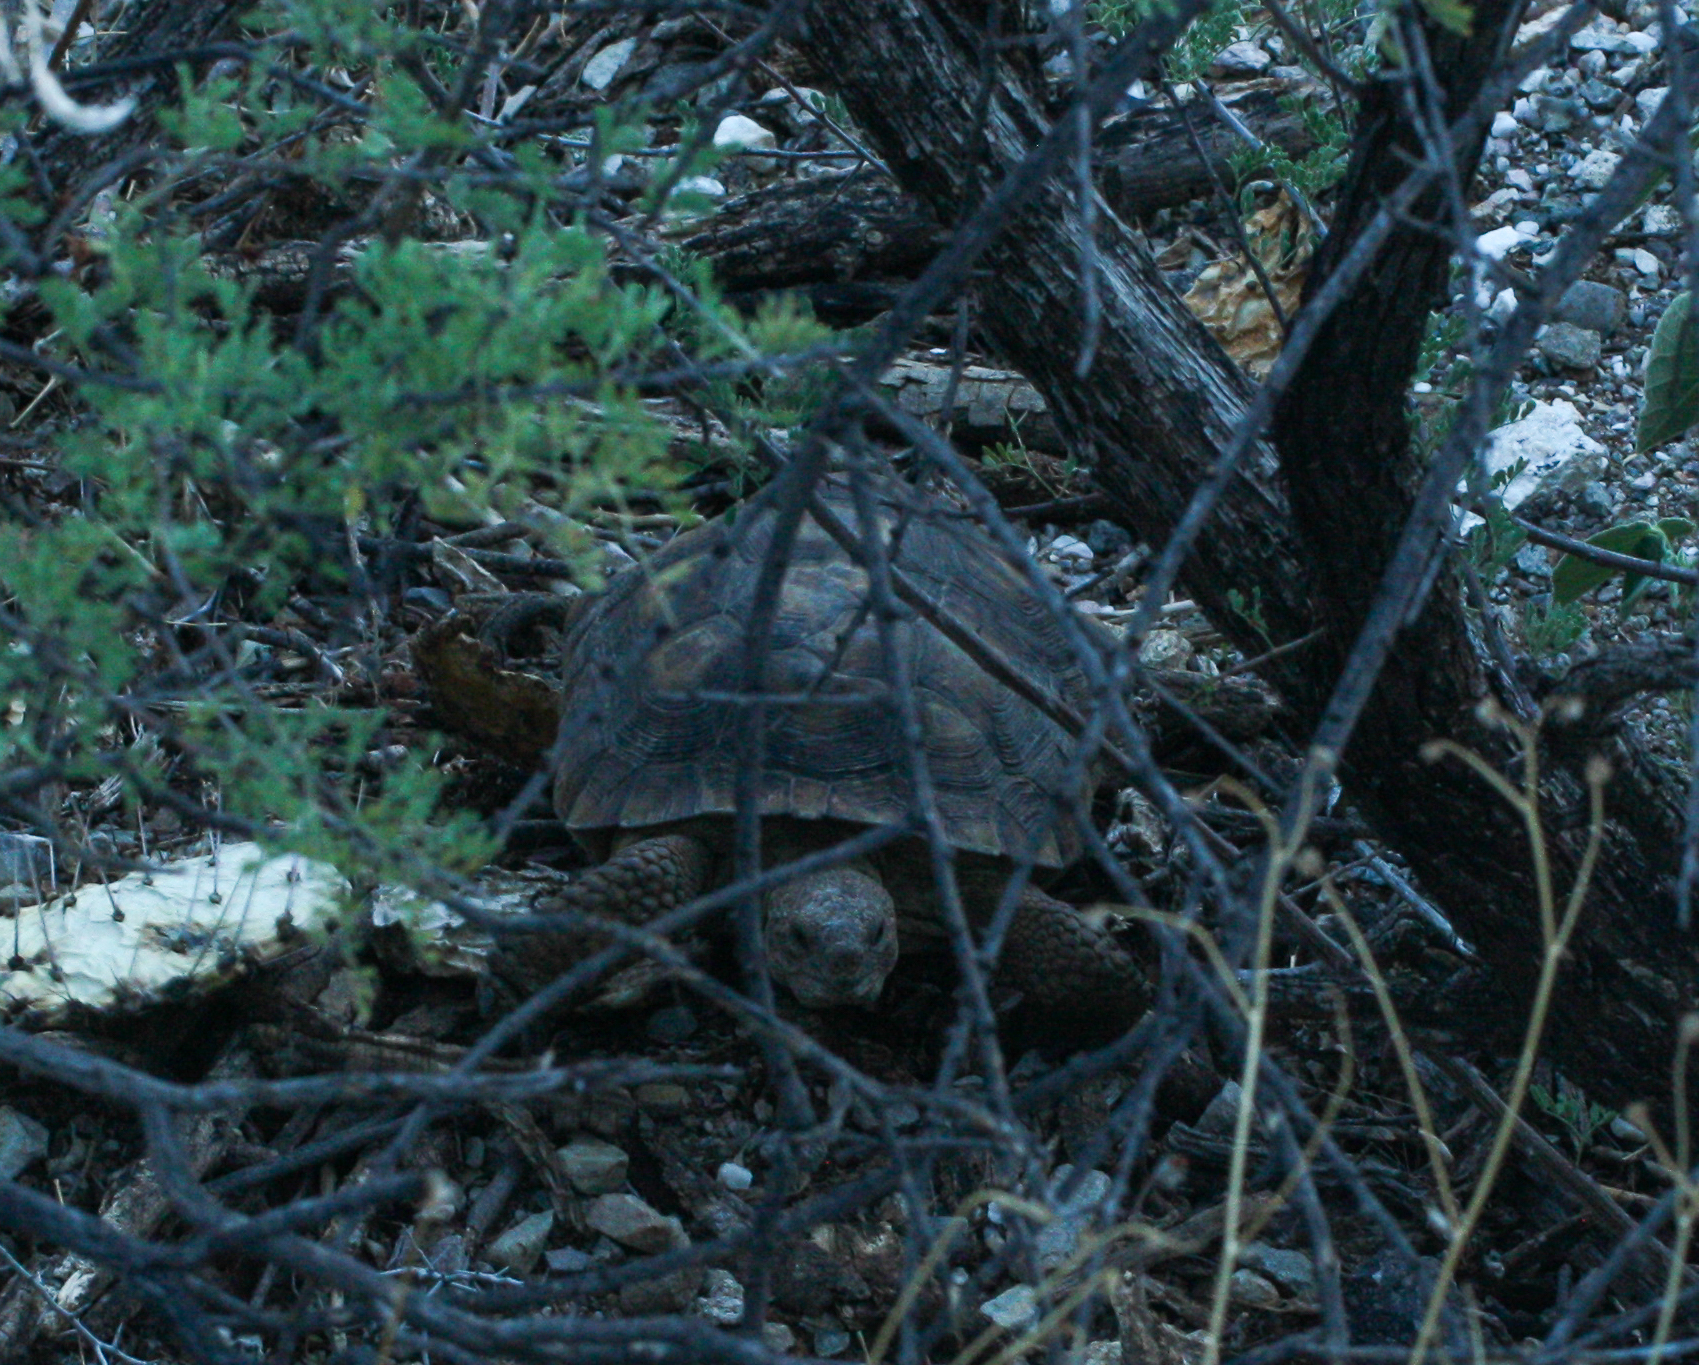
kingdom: Animalia
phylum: Chordata
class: Testudines
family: Testudinidae
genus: Gopherus
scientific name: Gopherus morafkai
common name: Sonoran desert tortoise
